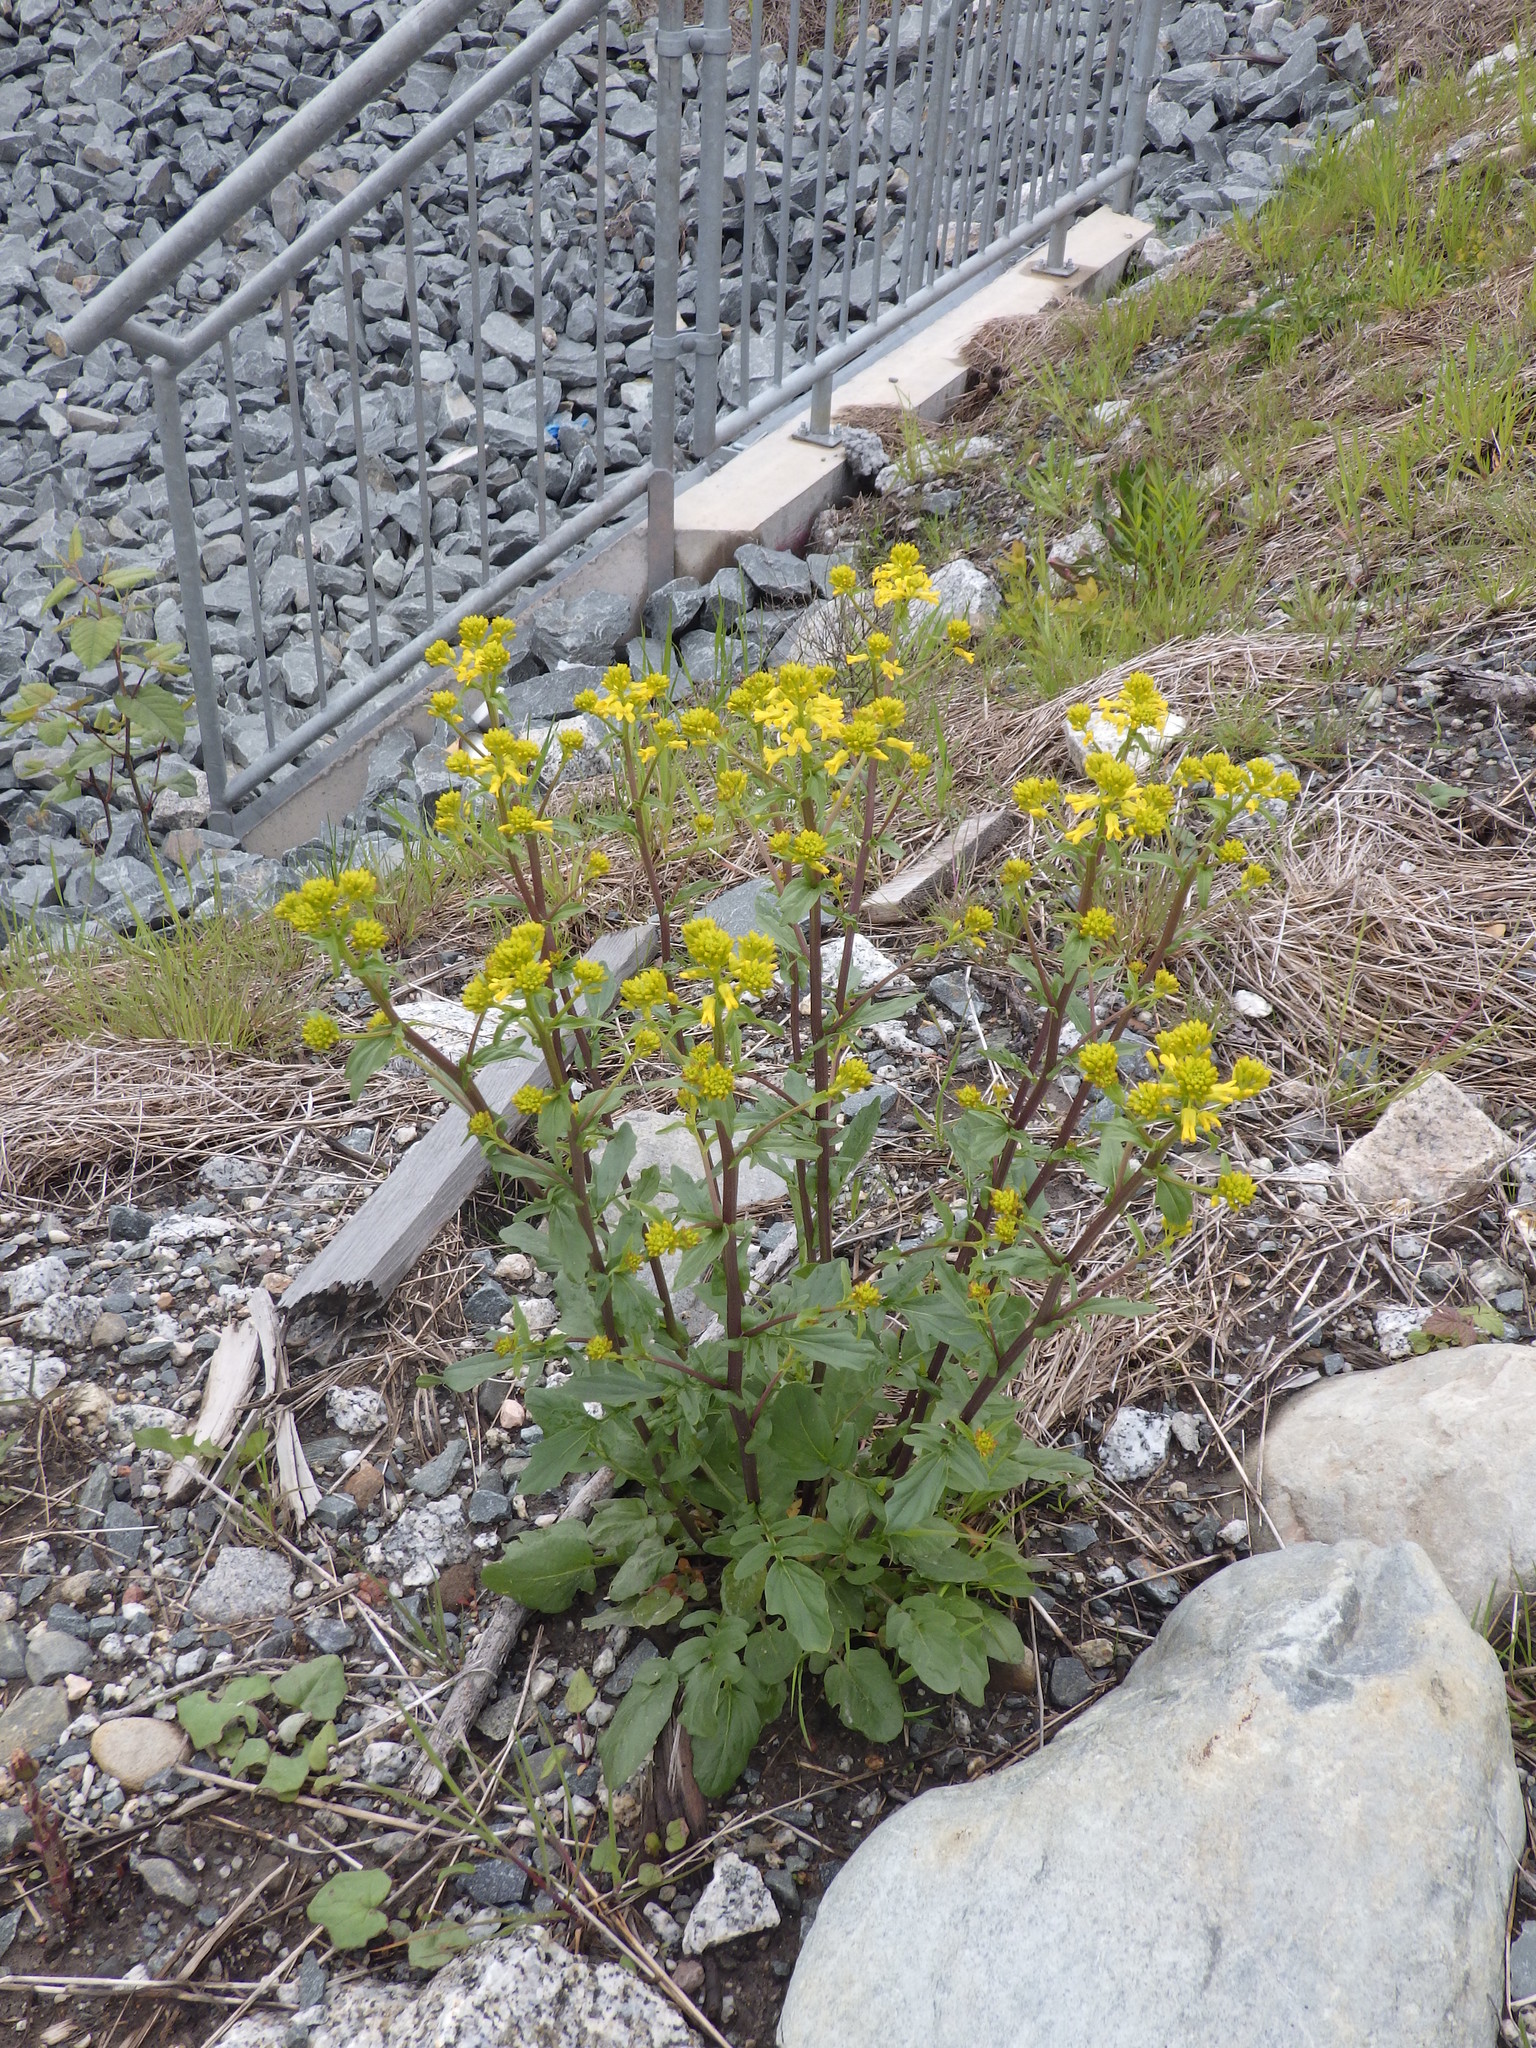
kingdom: Plantae
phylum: Tracheophyta
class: Magnoliopsida
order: Brassicales
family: Brassicaceae
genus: Barbarea
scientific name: Barbarea vulgaris
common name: Cressy-greens
